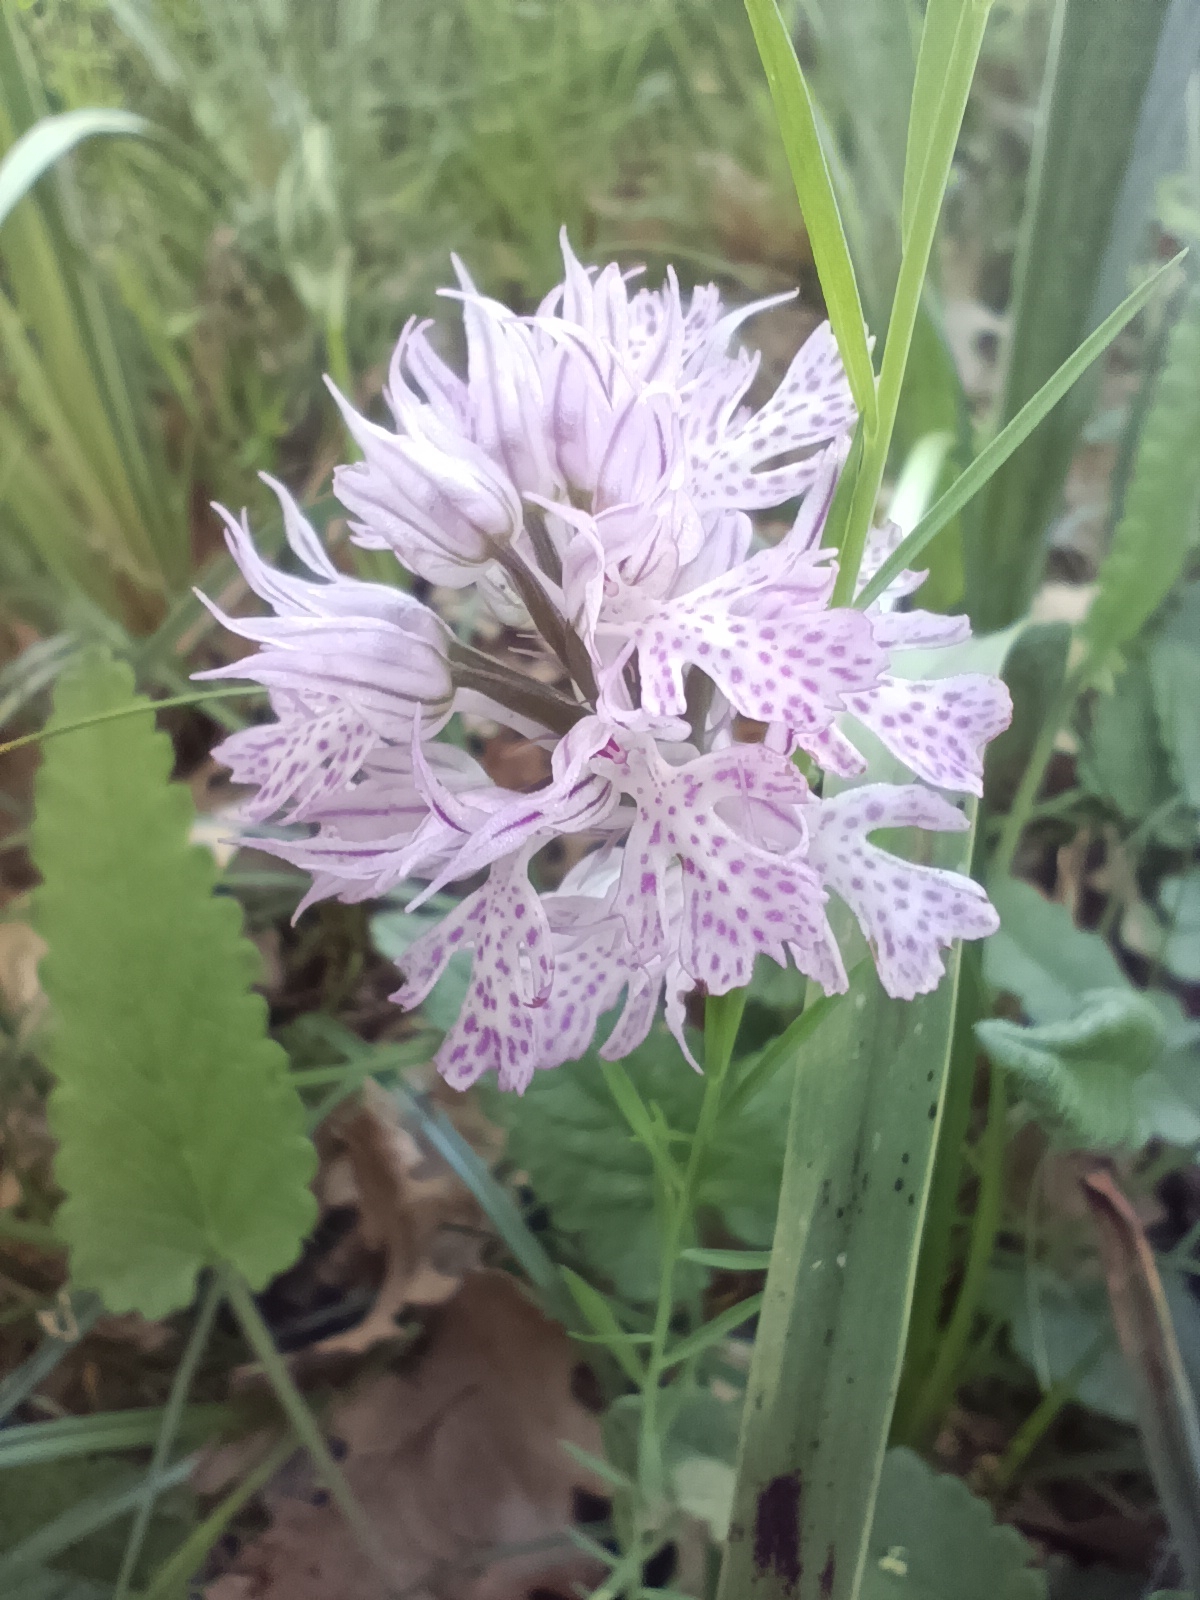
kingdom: Plantae
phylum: Tracheophyta
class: Liliopsida
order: Asparagales
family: Orchidaceae
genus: Neotinea
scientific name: Neotinea tridentata
